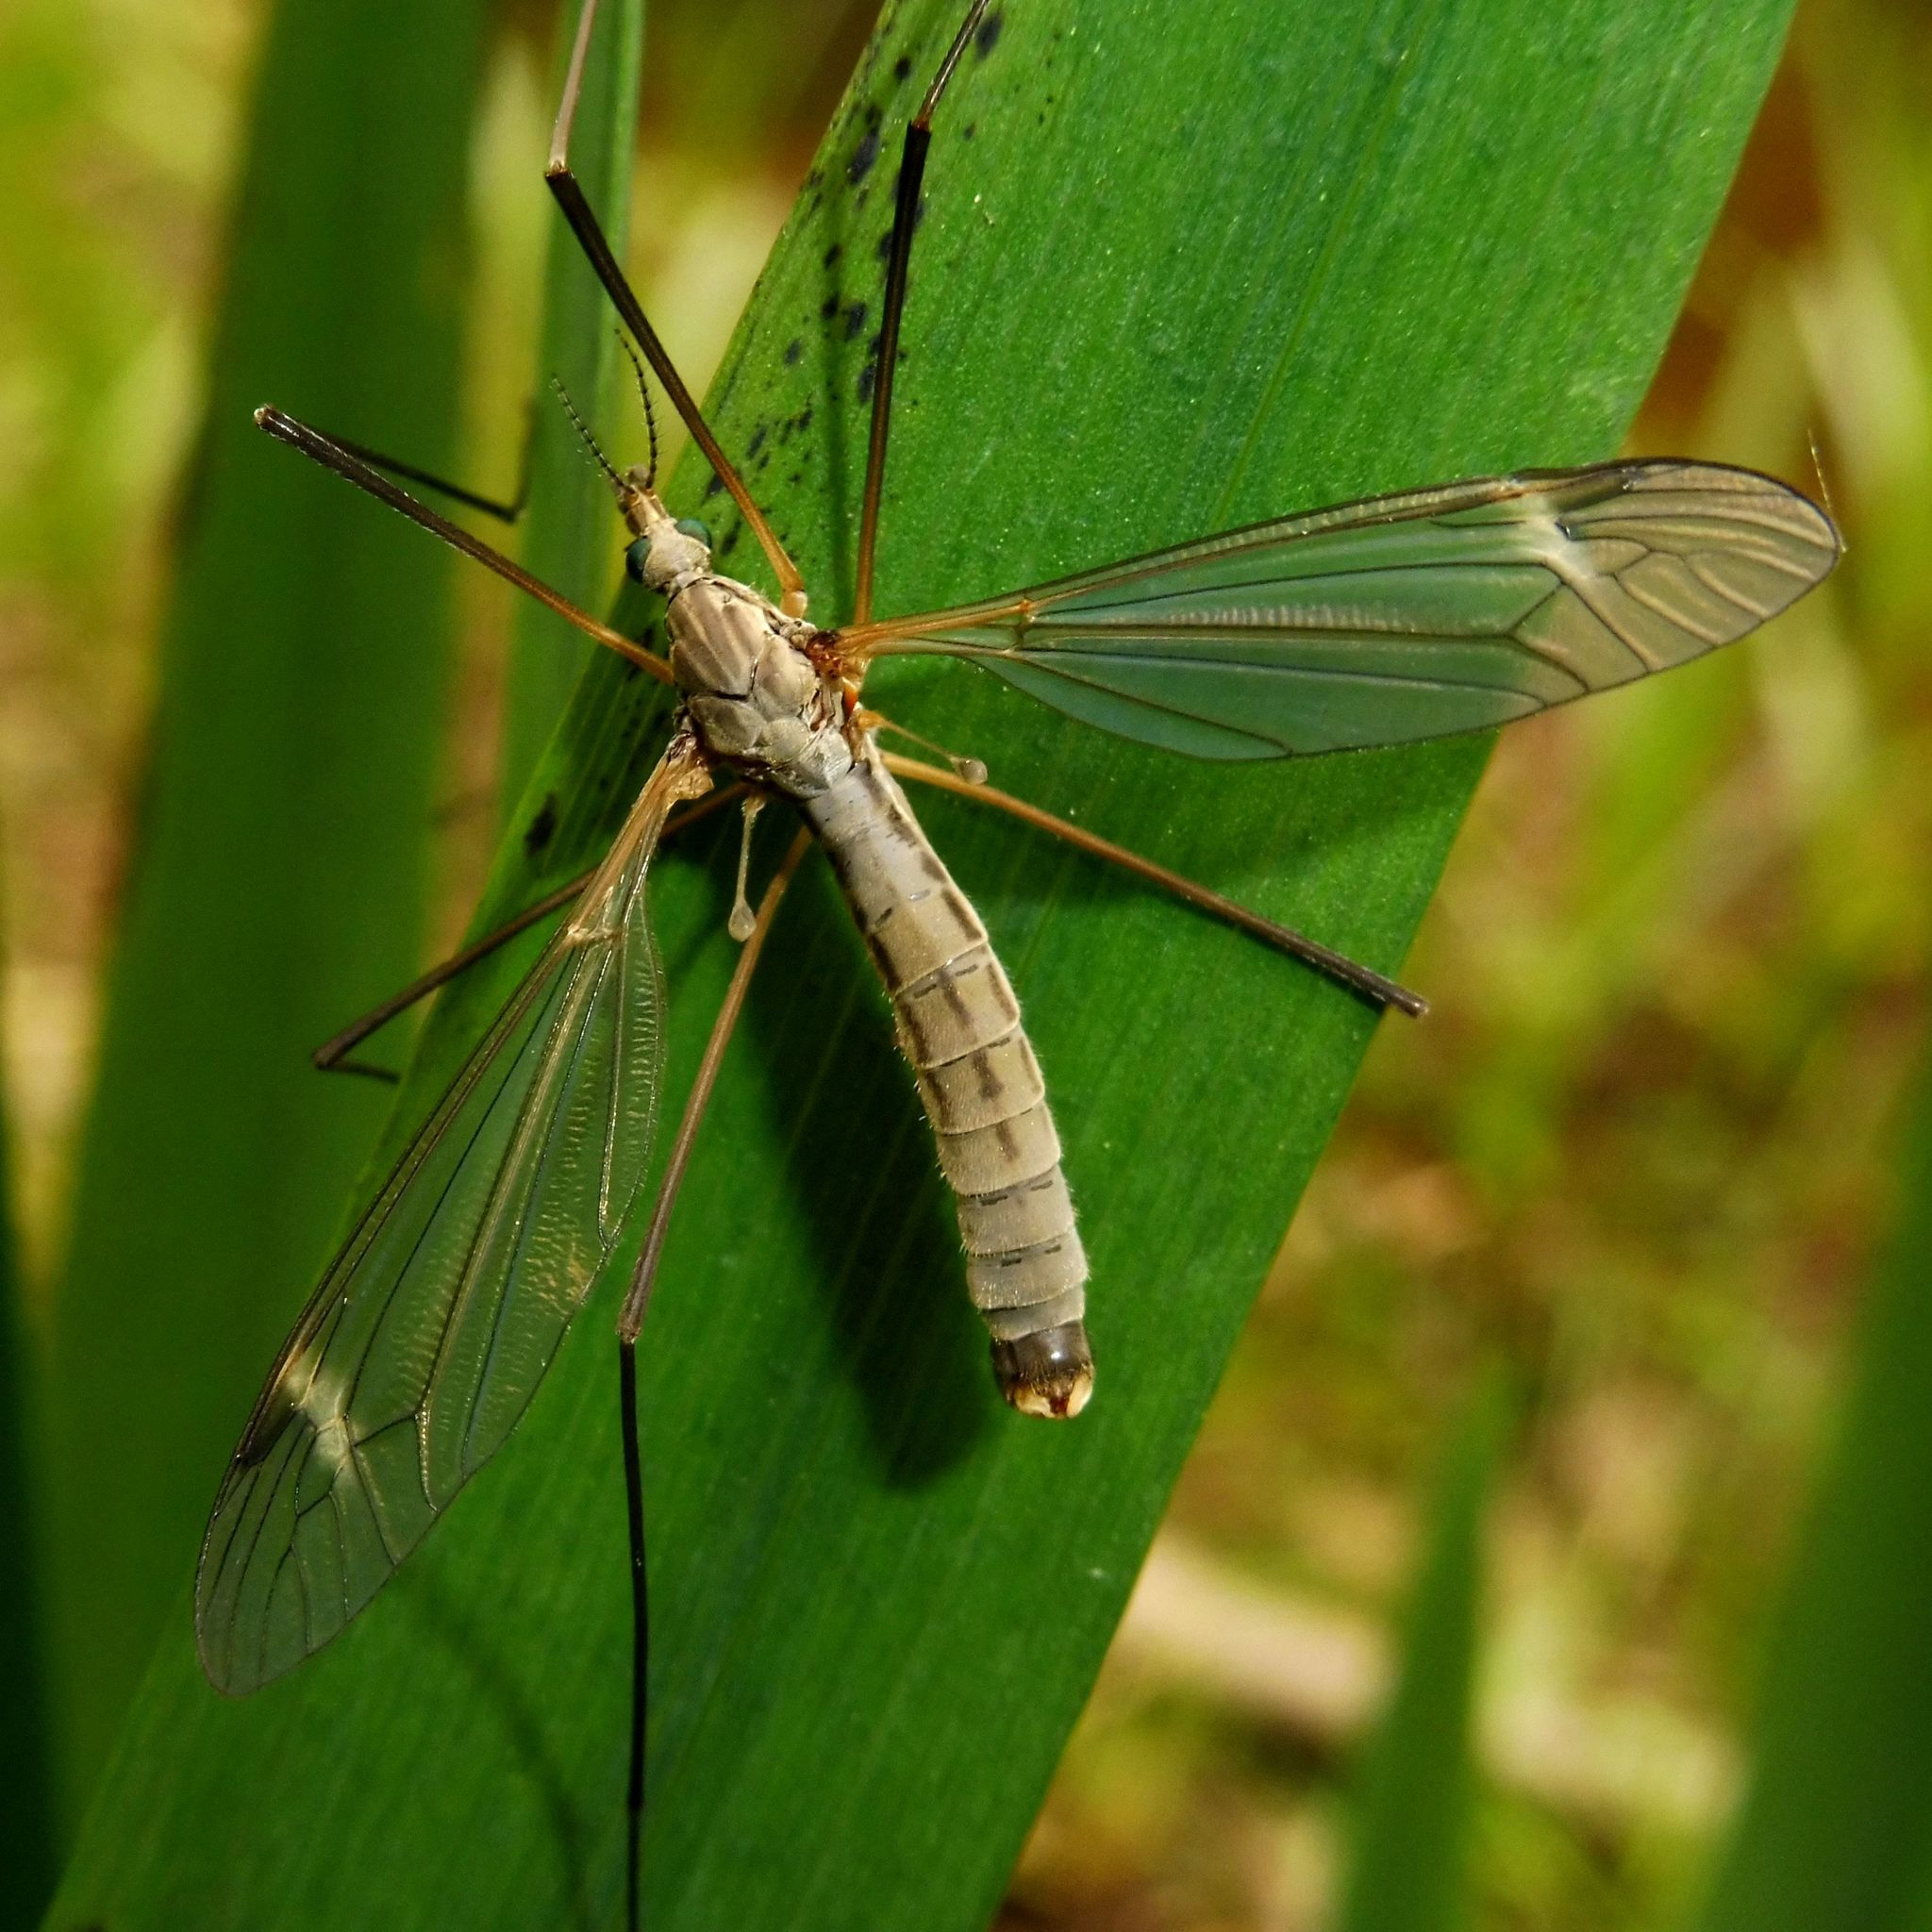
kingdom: Animalia
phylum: Arthropoda
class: Insecta
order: Diptera
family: Tipulidae
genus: Tipula
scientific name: Tipula luna
